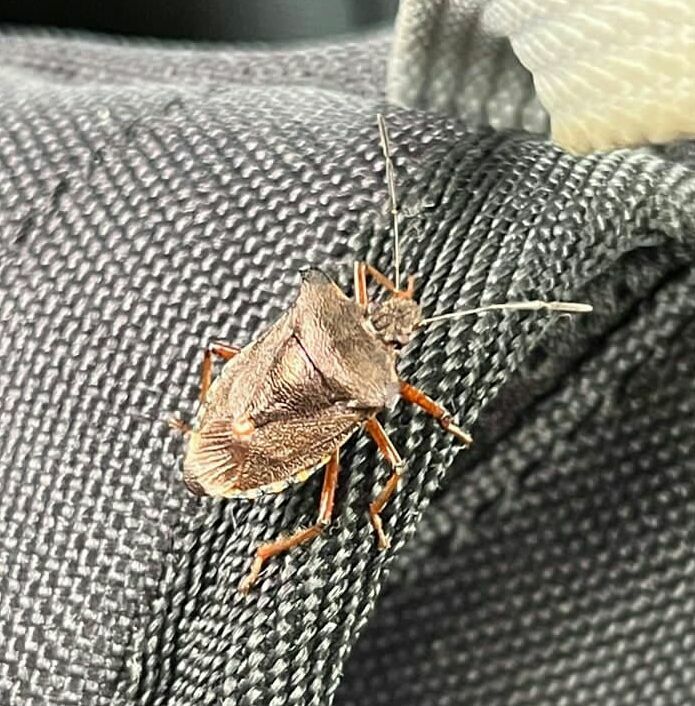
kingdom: Animalia
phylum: Arthropoda
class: Insecta
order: Hemiptera
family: Pentatomidae
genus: Pentatoma
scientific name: Pentatoma rufipes
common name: Forest bug
